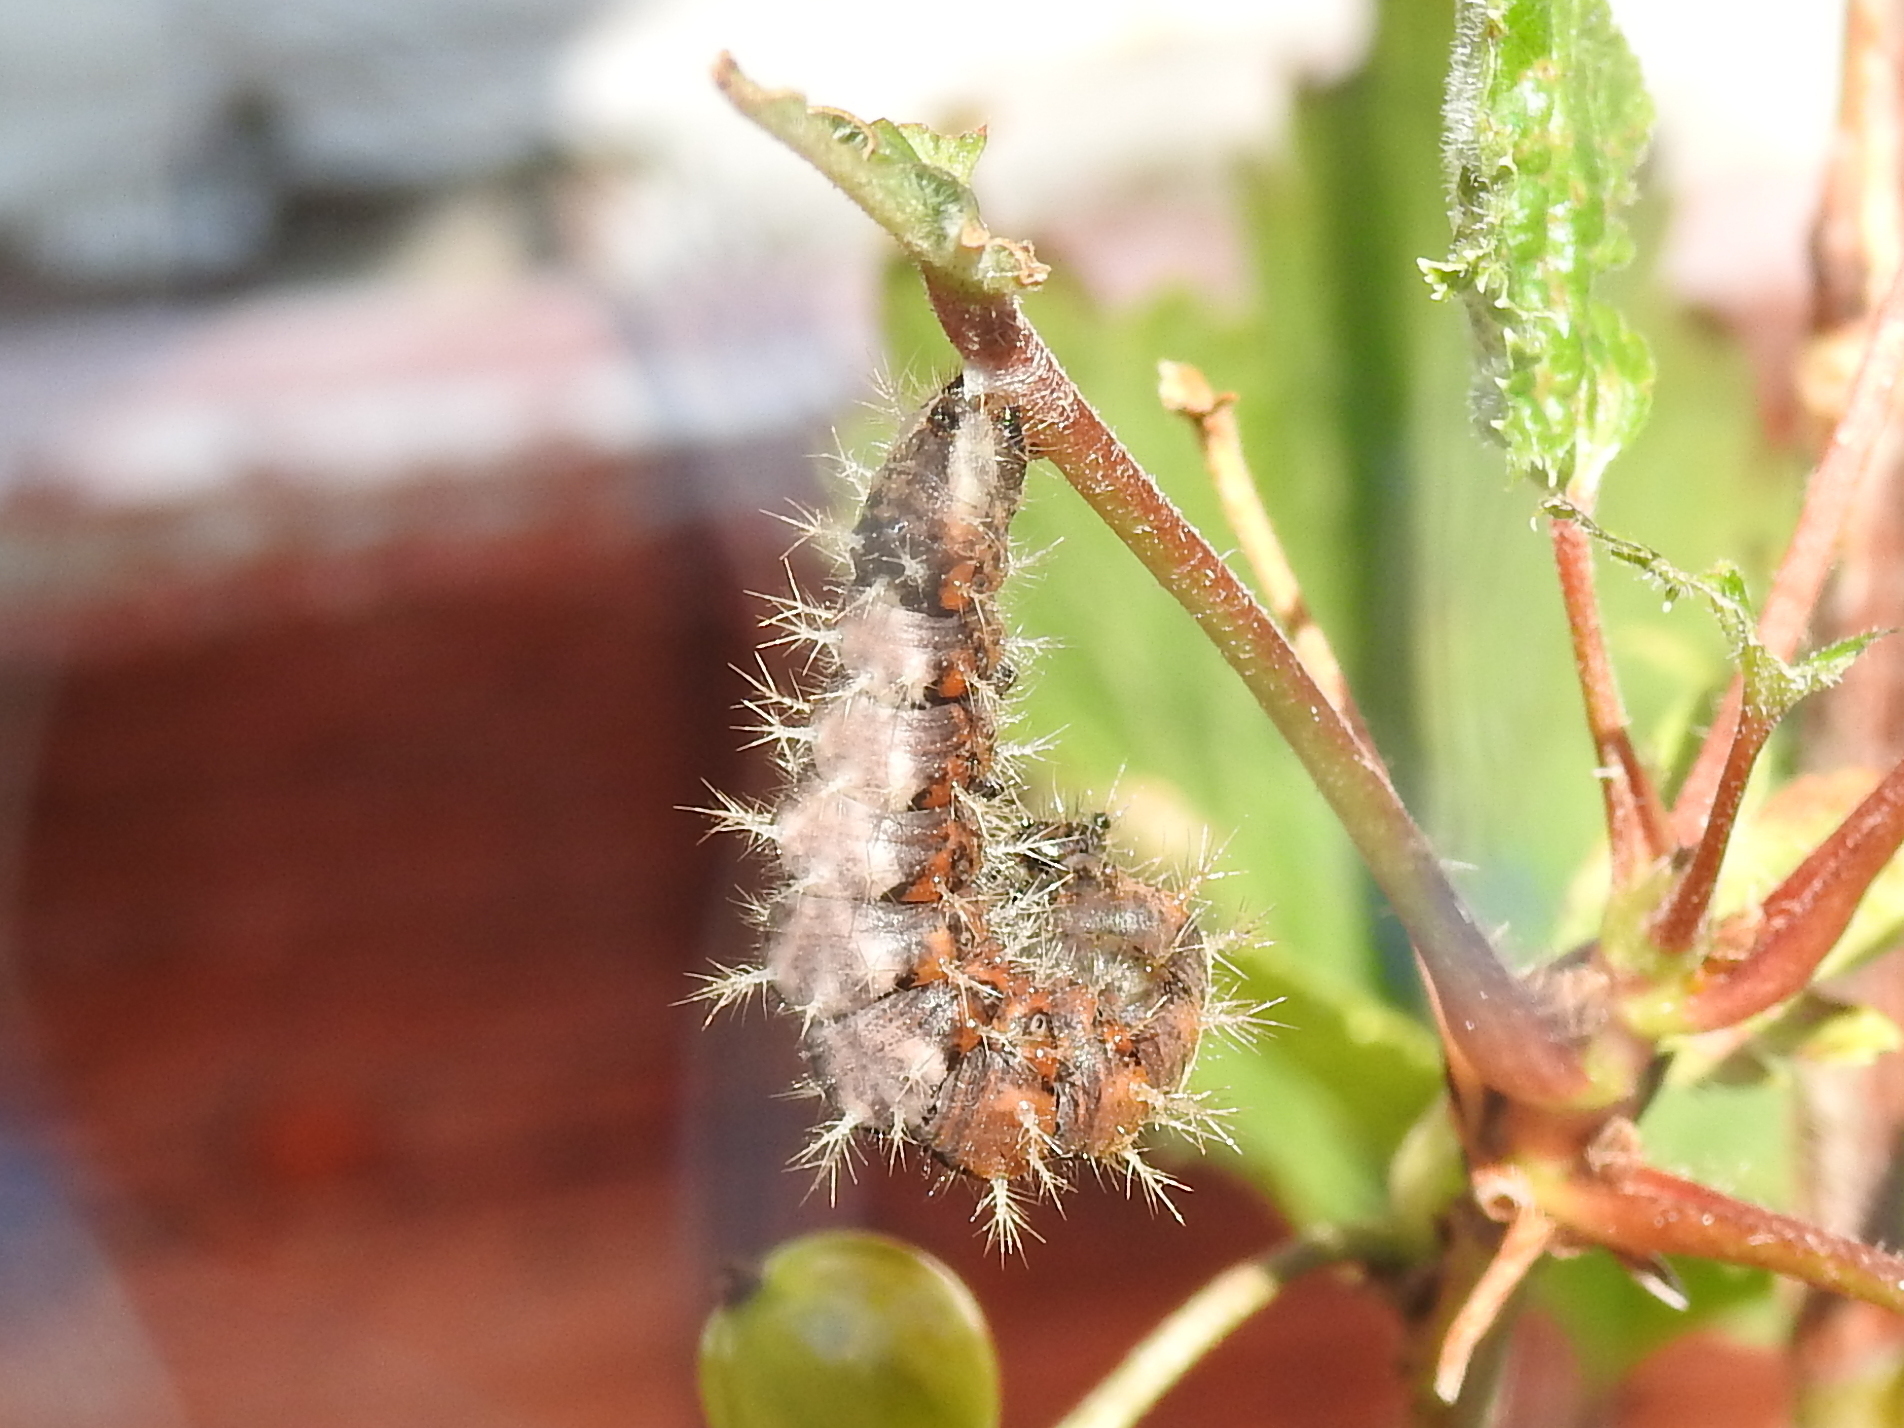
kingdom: Animalia
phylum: Arthropoda
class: Insecta
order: Lepidoptera
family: Nymphalidae
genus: Polygonia
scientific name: Polygonia c-album
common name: Comma
